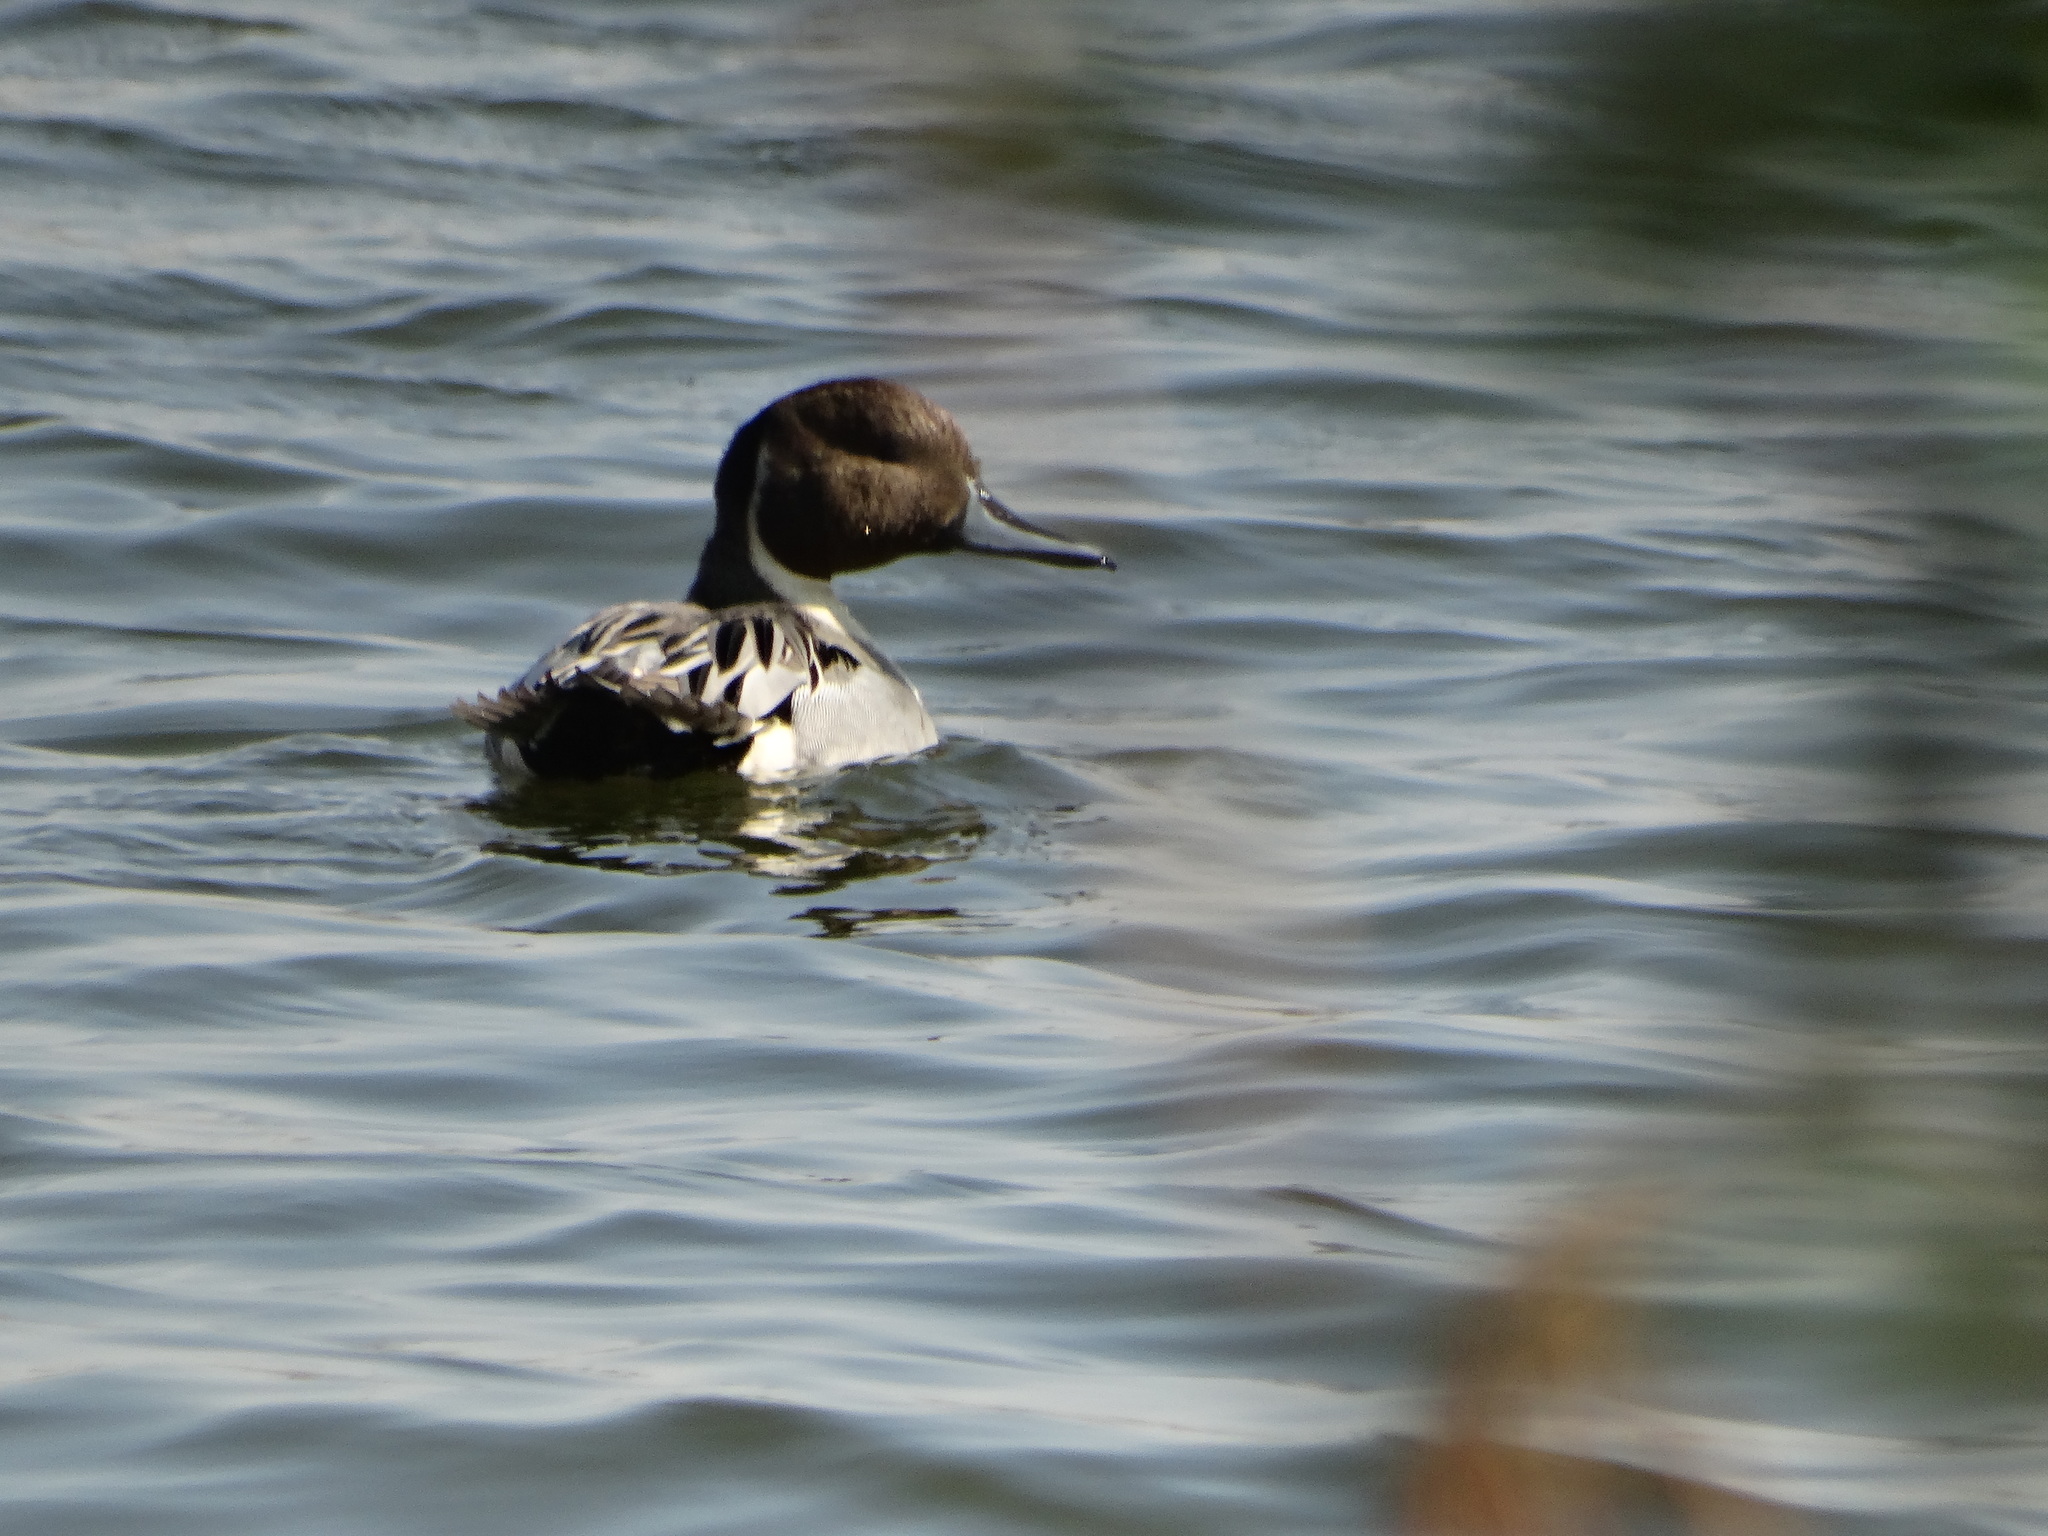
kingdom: Animalia
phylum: Chordata
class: Aves
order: Anseriformes
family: Anatidae
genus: Anas
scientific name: Anas acuta
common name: Northern pintail
